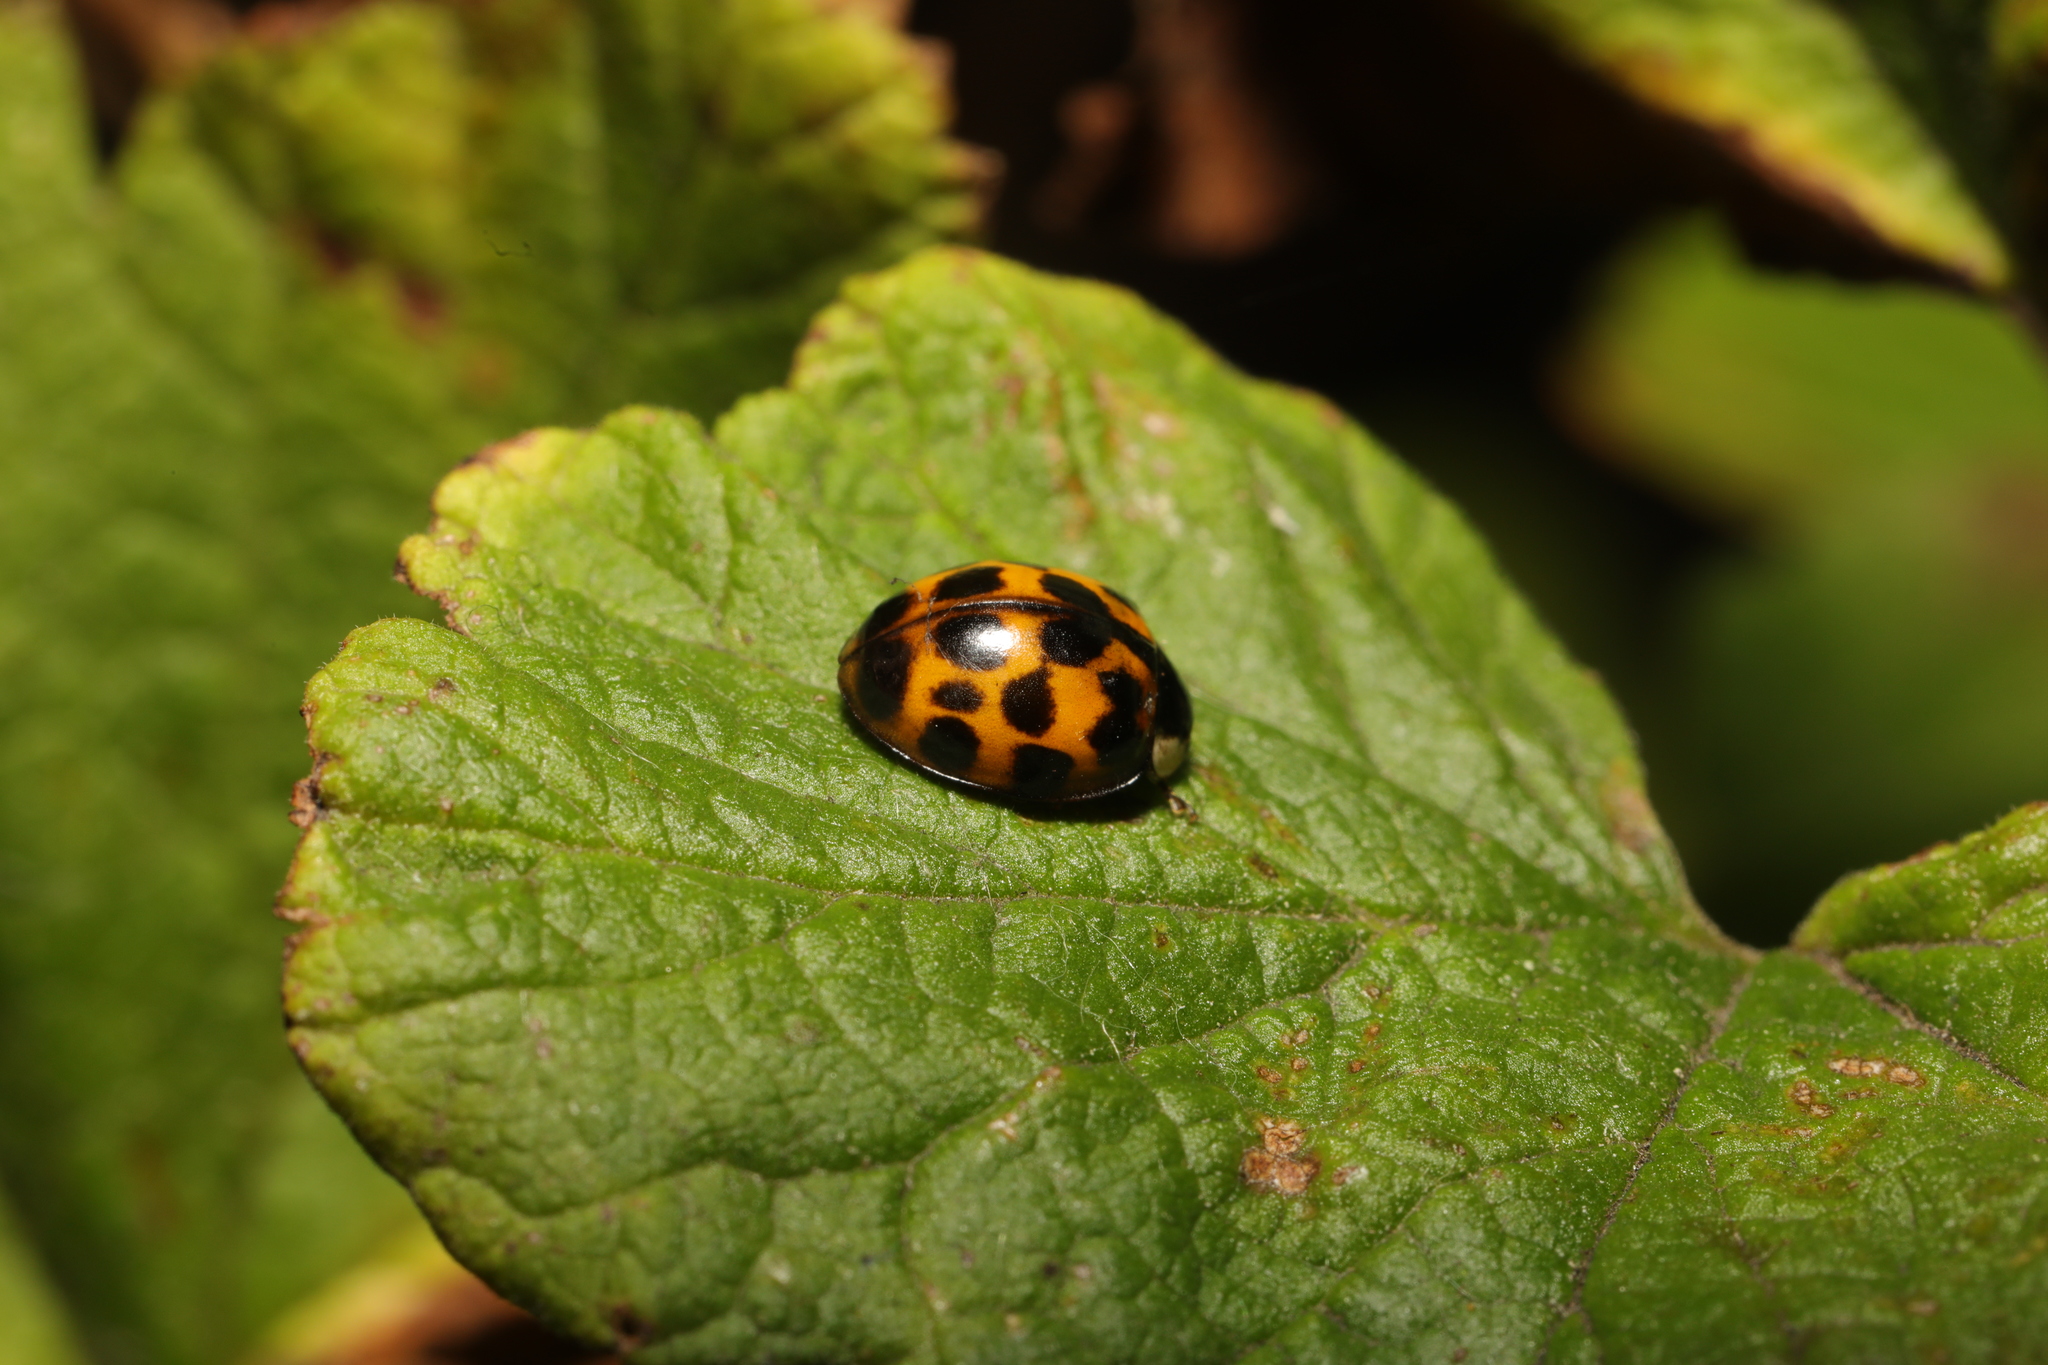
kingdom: Animalia
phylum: Arthropoda
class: Insecta
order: Coleoptera
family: Coccinellidae
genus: Harmonia
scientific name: Harmonia axyridis
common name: Harlequin ladybird
